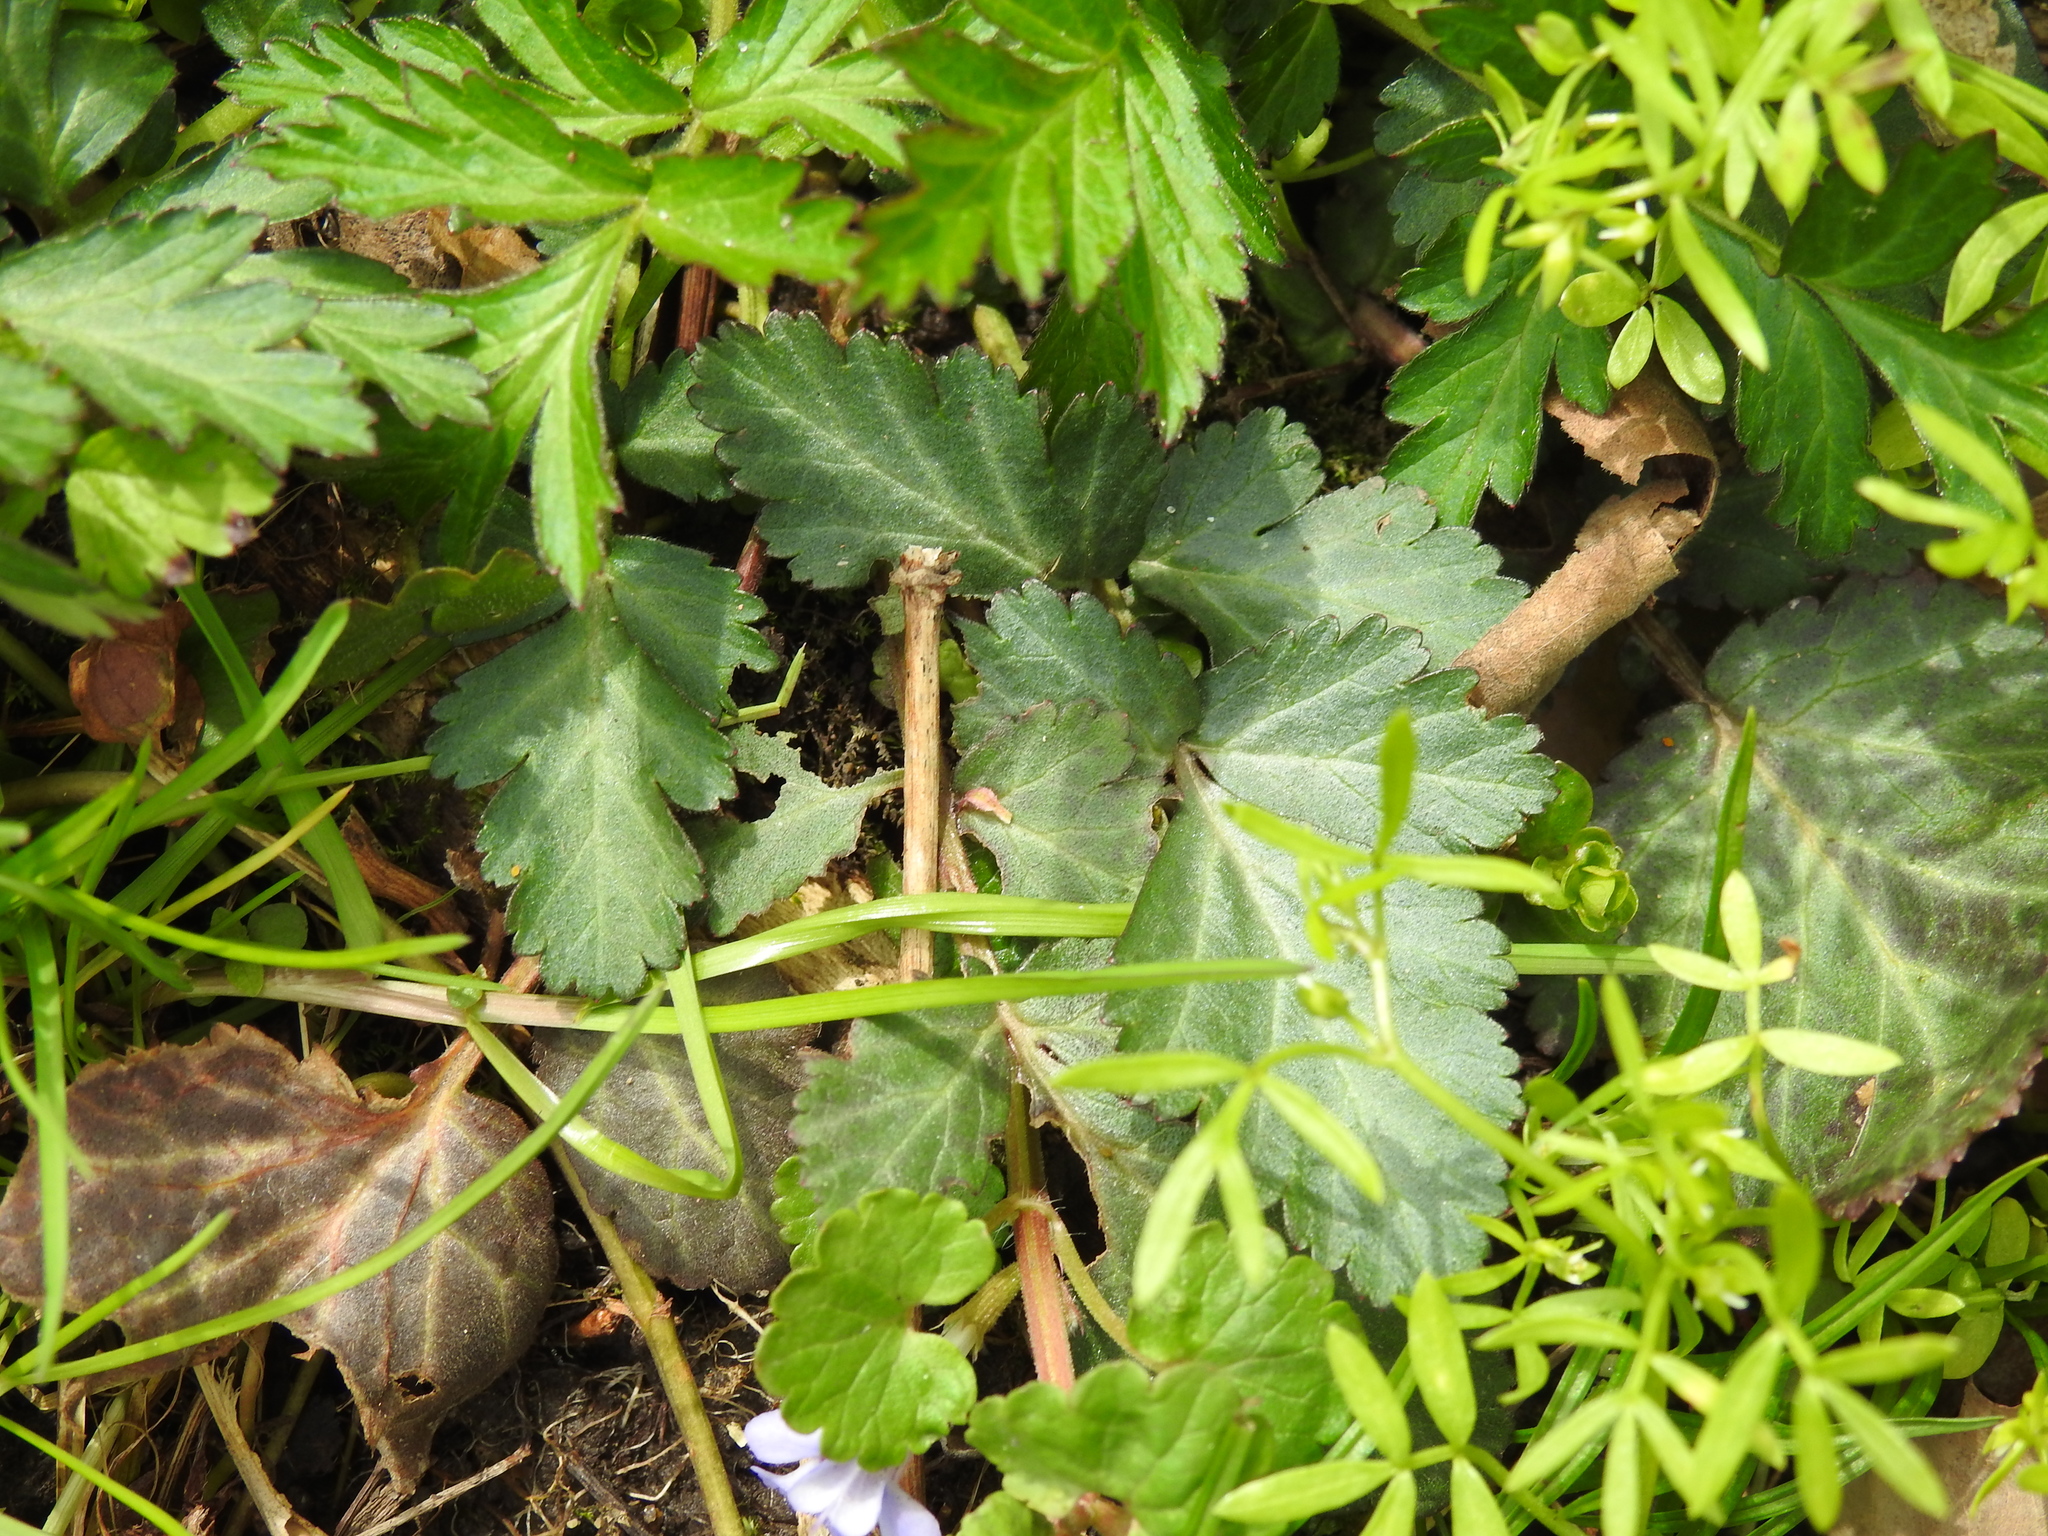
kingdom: Plantae
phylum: Tracheophyta
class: Magnoliopsida
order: Rosales
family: Rosaceae
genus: Geum
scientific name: Geum canadense
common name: White avens
